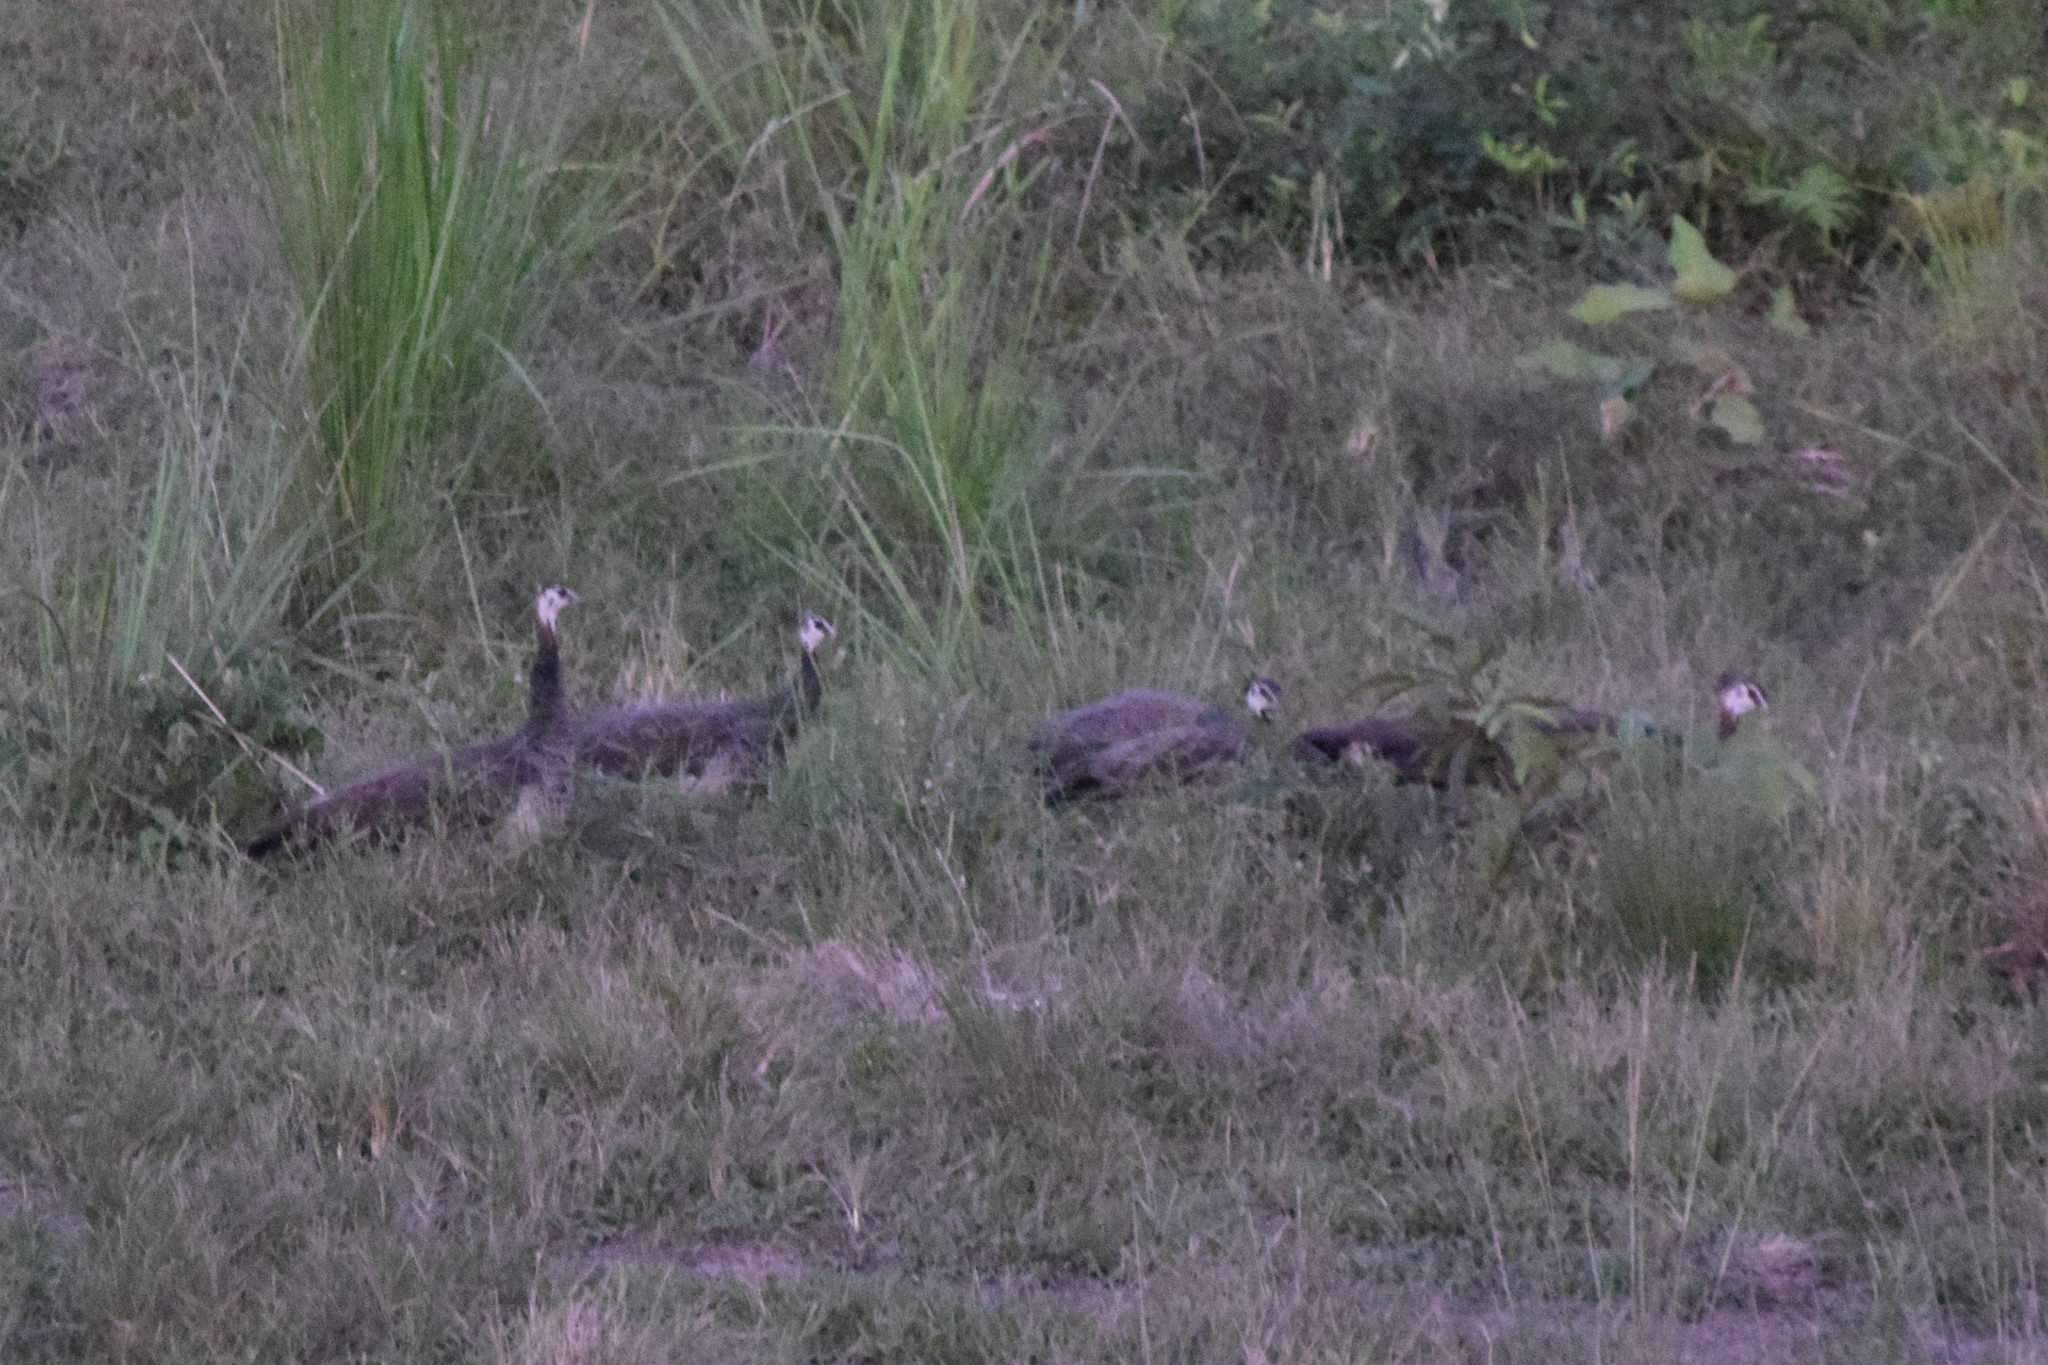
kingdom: Animalia
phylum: Chordata
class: Aves
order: Galliformes
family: Phasianidae
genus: Pavo
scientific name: Pavo cristatus
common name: Indian peafowl
